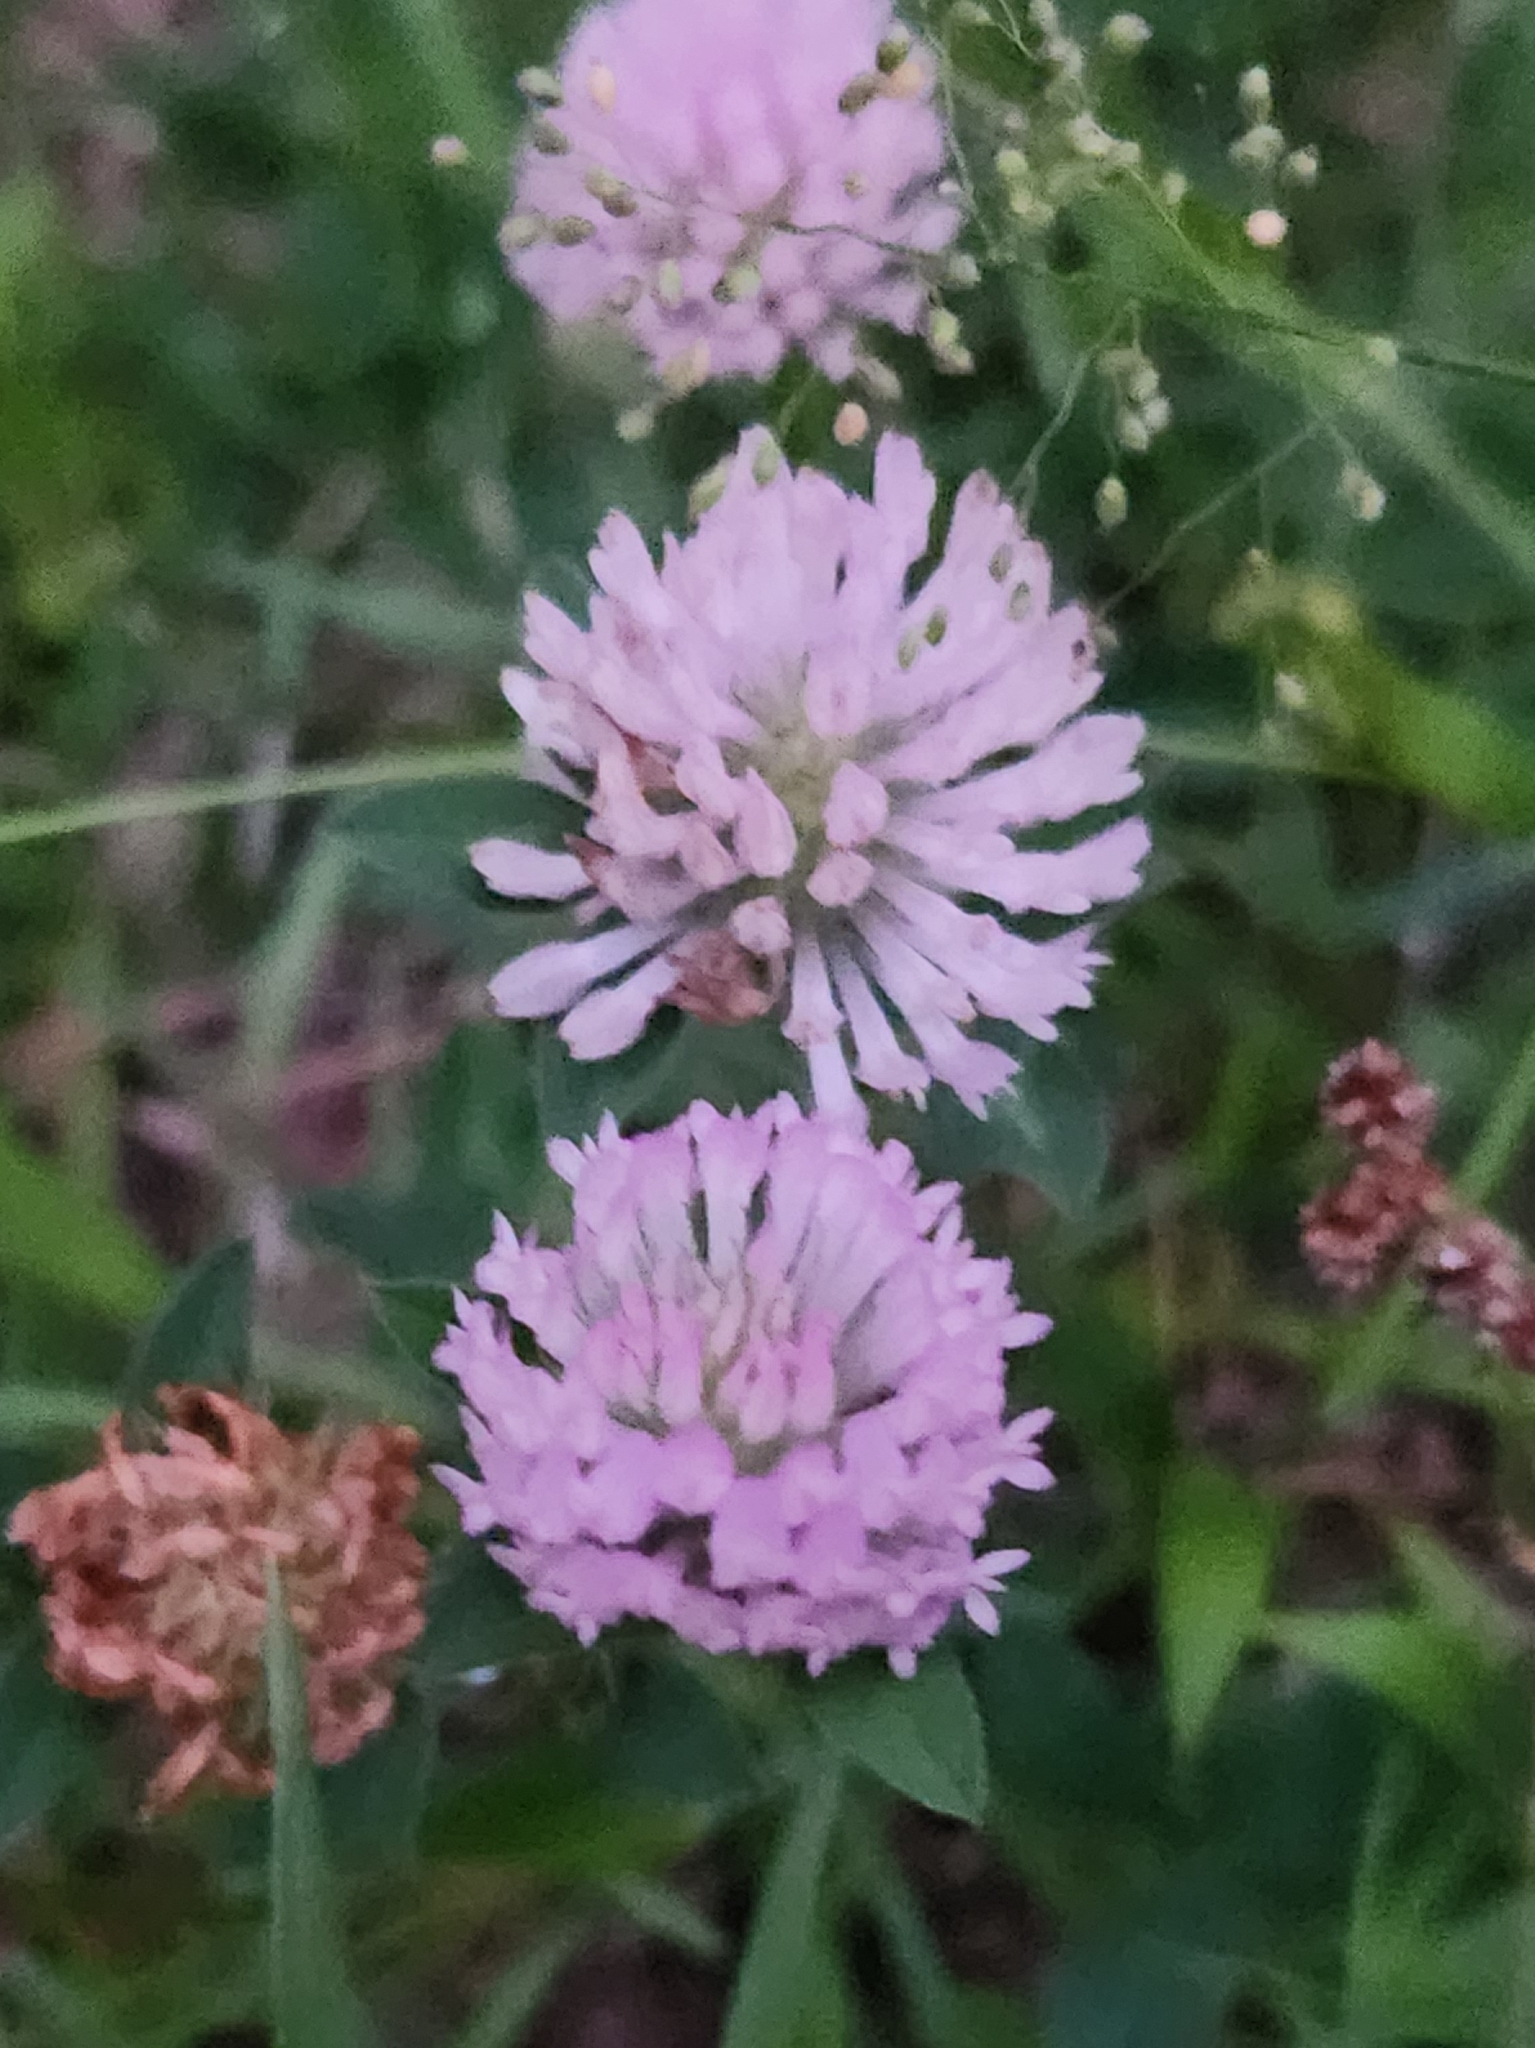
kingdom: Plantae
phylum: Tracheophyta
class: Magnoliopsida
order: Fabales
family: Fabaceae
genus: Trifolium
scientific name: Trifolium pratense
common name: Red clover
